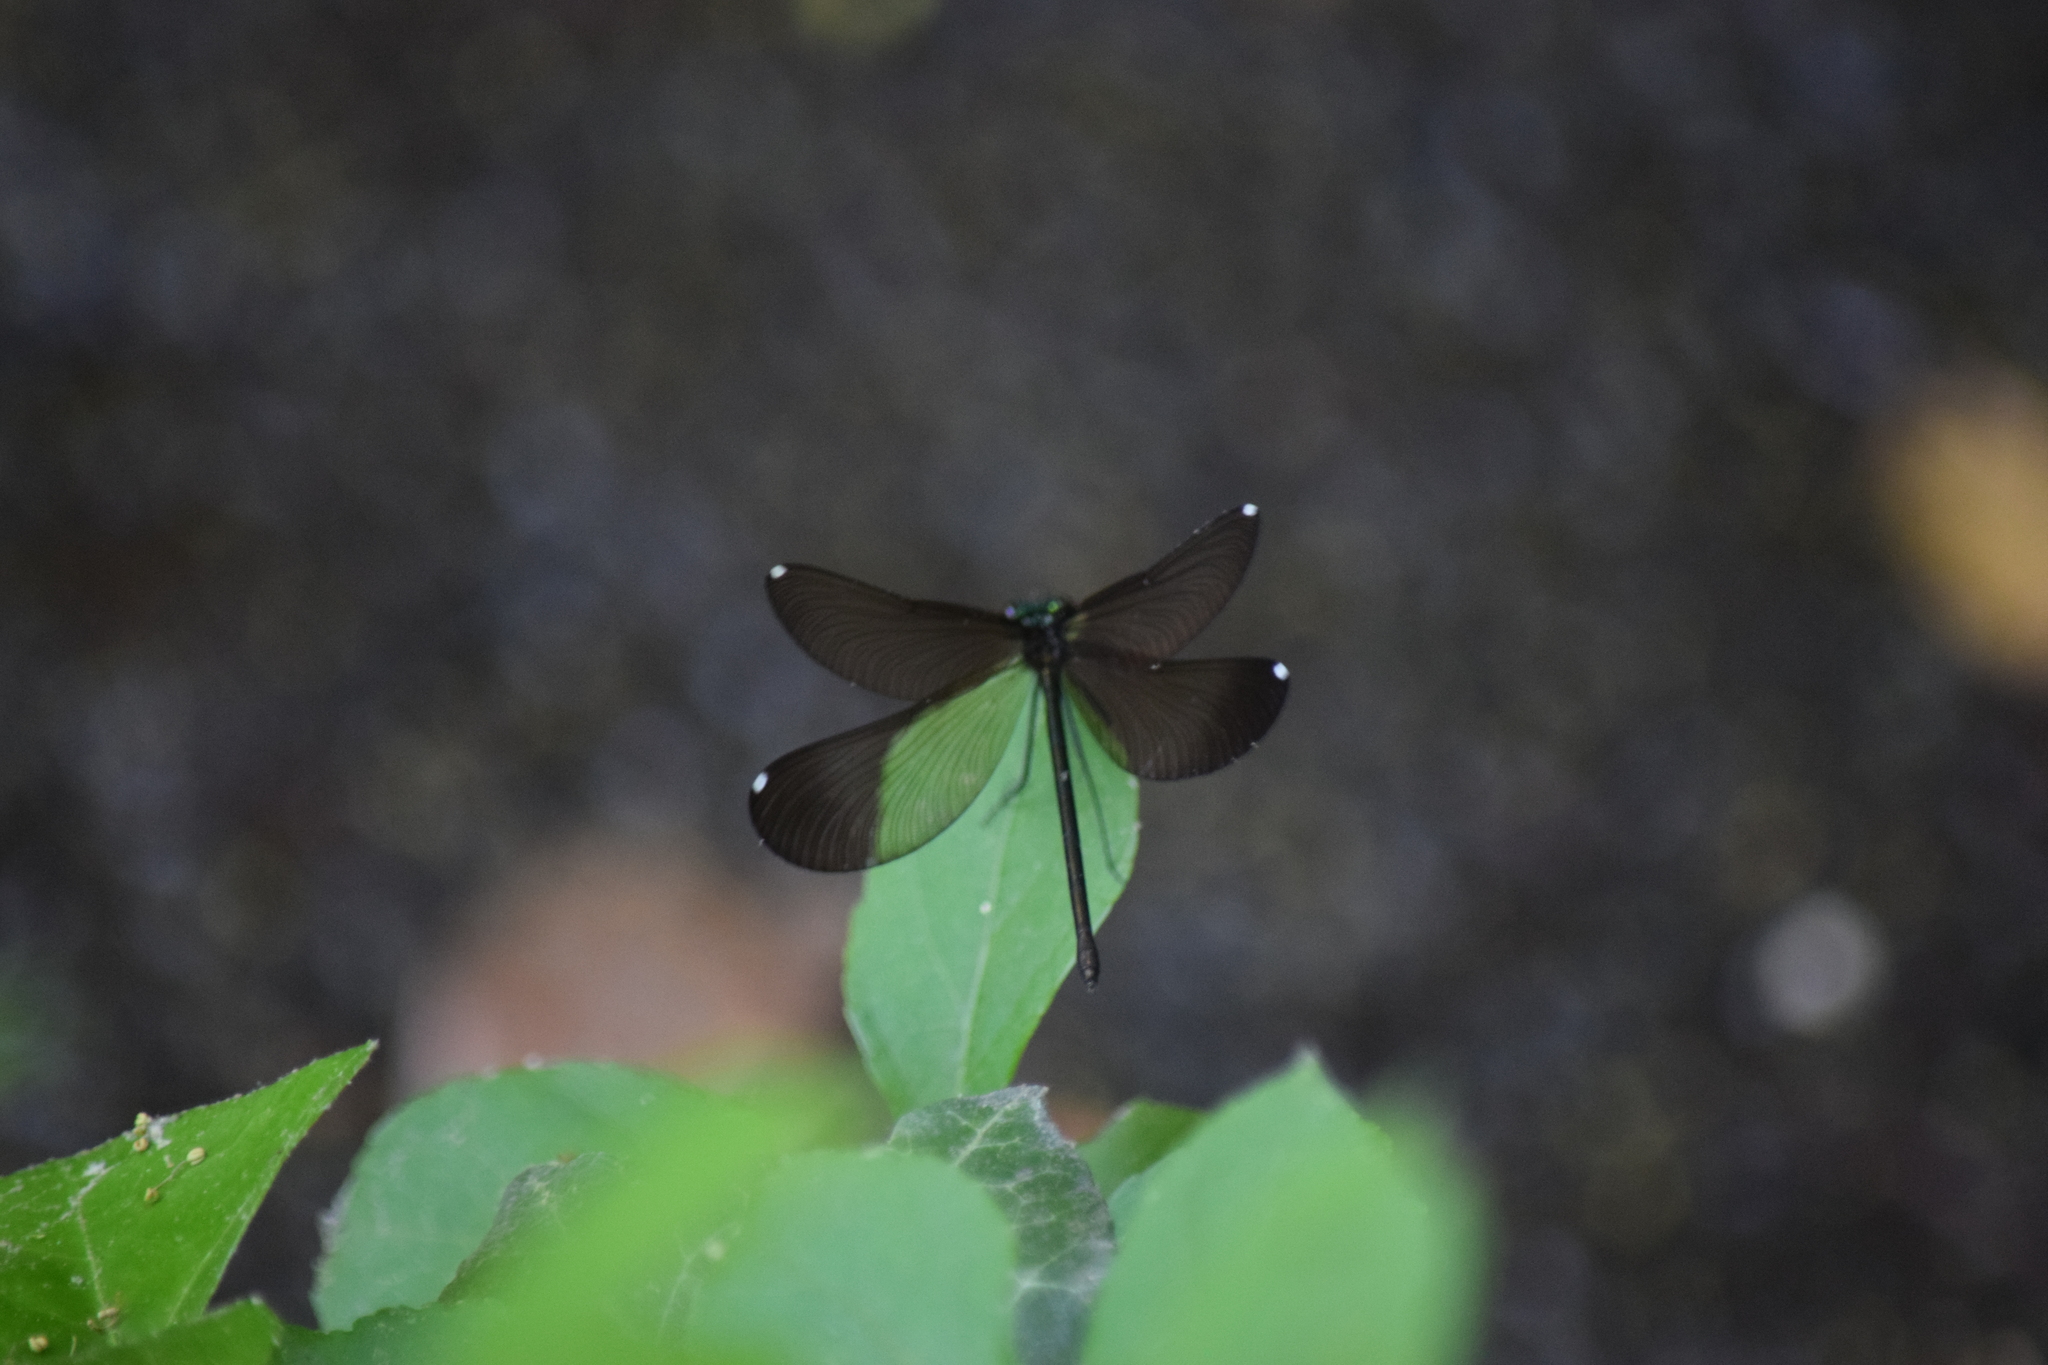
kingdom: Animalia
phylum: Arthropoda
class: Insecta
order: Odonata
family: Calopterygidae
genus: Calopteryx
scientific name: Calopteryx maculata
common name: Ebony jewelwing
